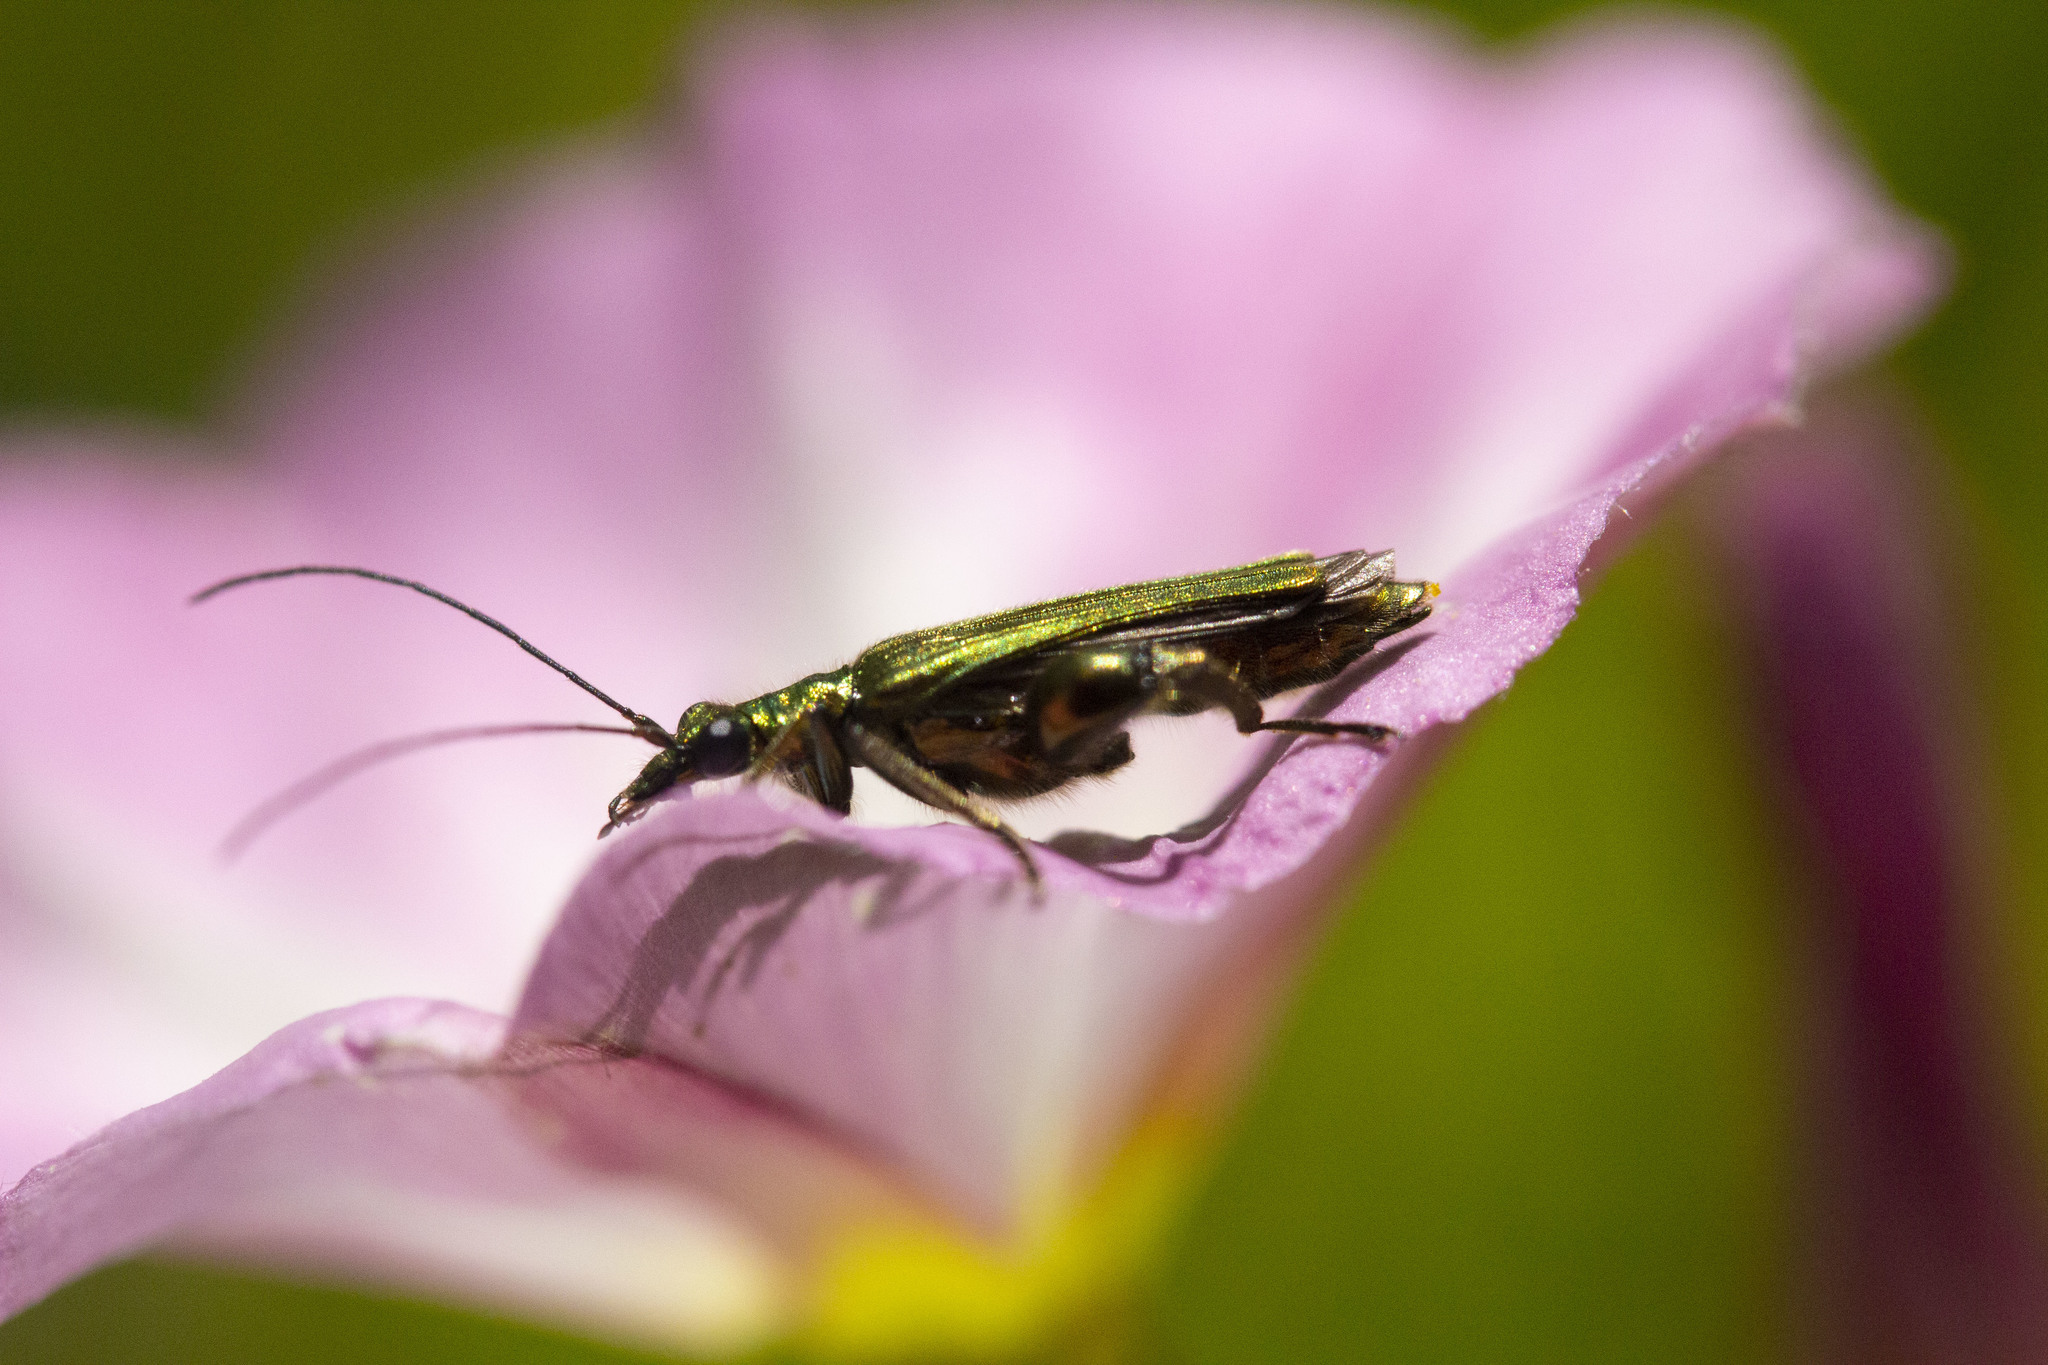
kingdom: Animalia
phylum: Arthropoda
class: Insecta
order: Coleoptera
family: Oedemeridae
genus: Oedemera
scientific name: Oedemera nobilis
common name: Swollen-thighed beetle
